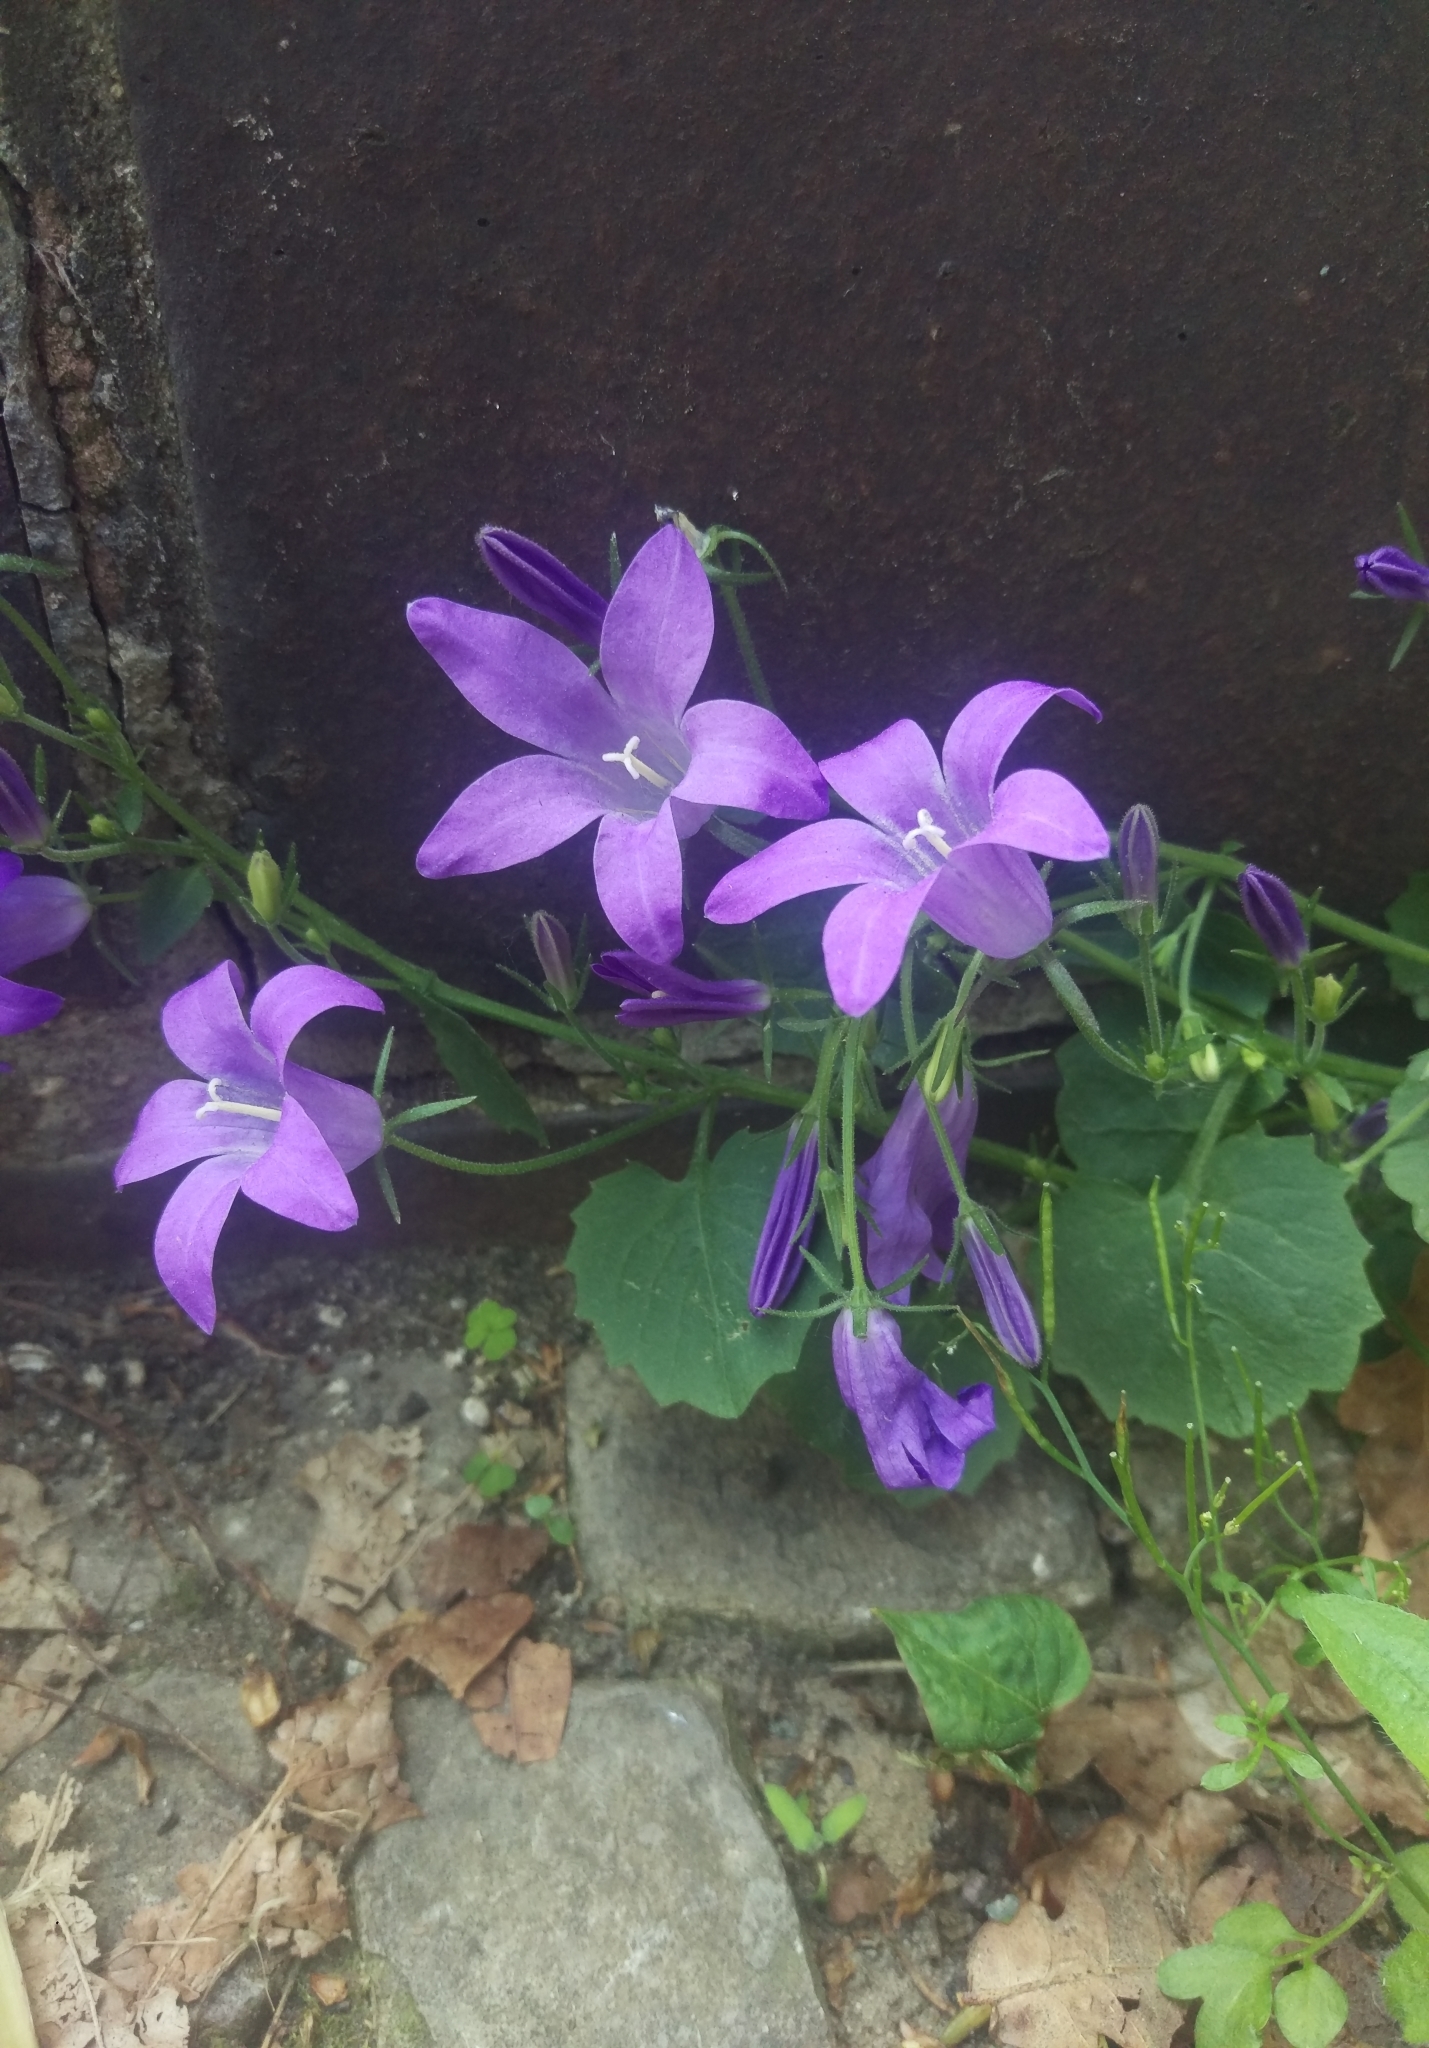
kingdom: Plantae
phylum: Tracheophyta
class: Magnoliopsida
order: Asterales
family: Campanulaceae
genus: Campanula
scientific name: Campanula poscharskyana
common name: Trailing bellflower
